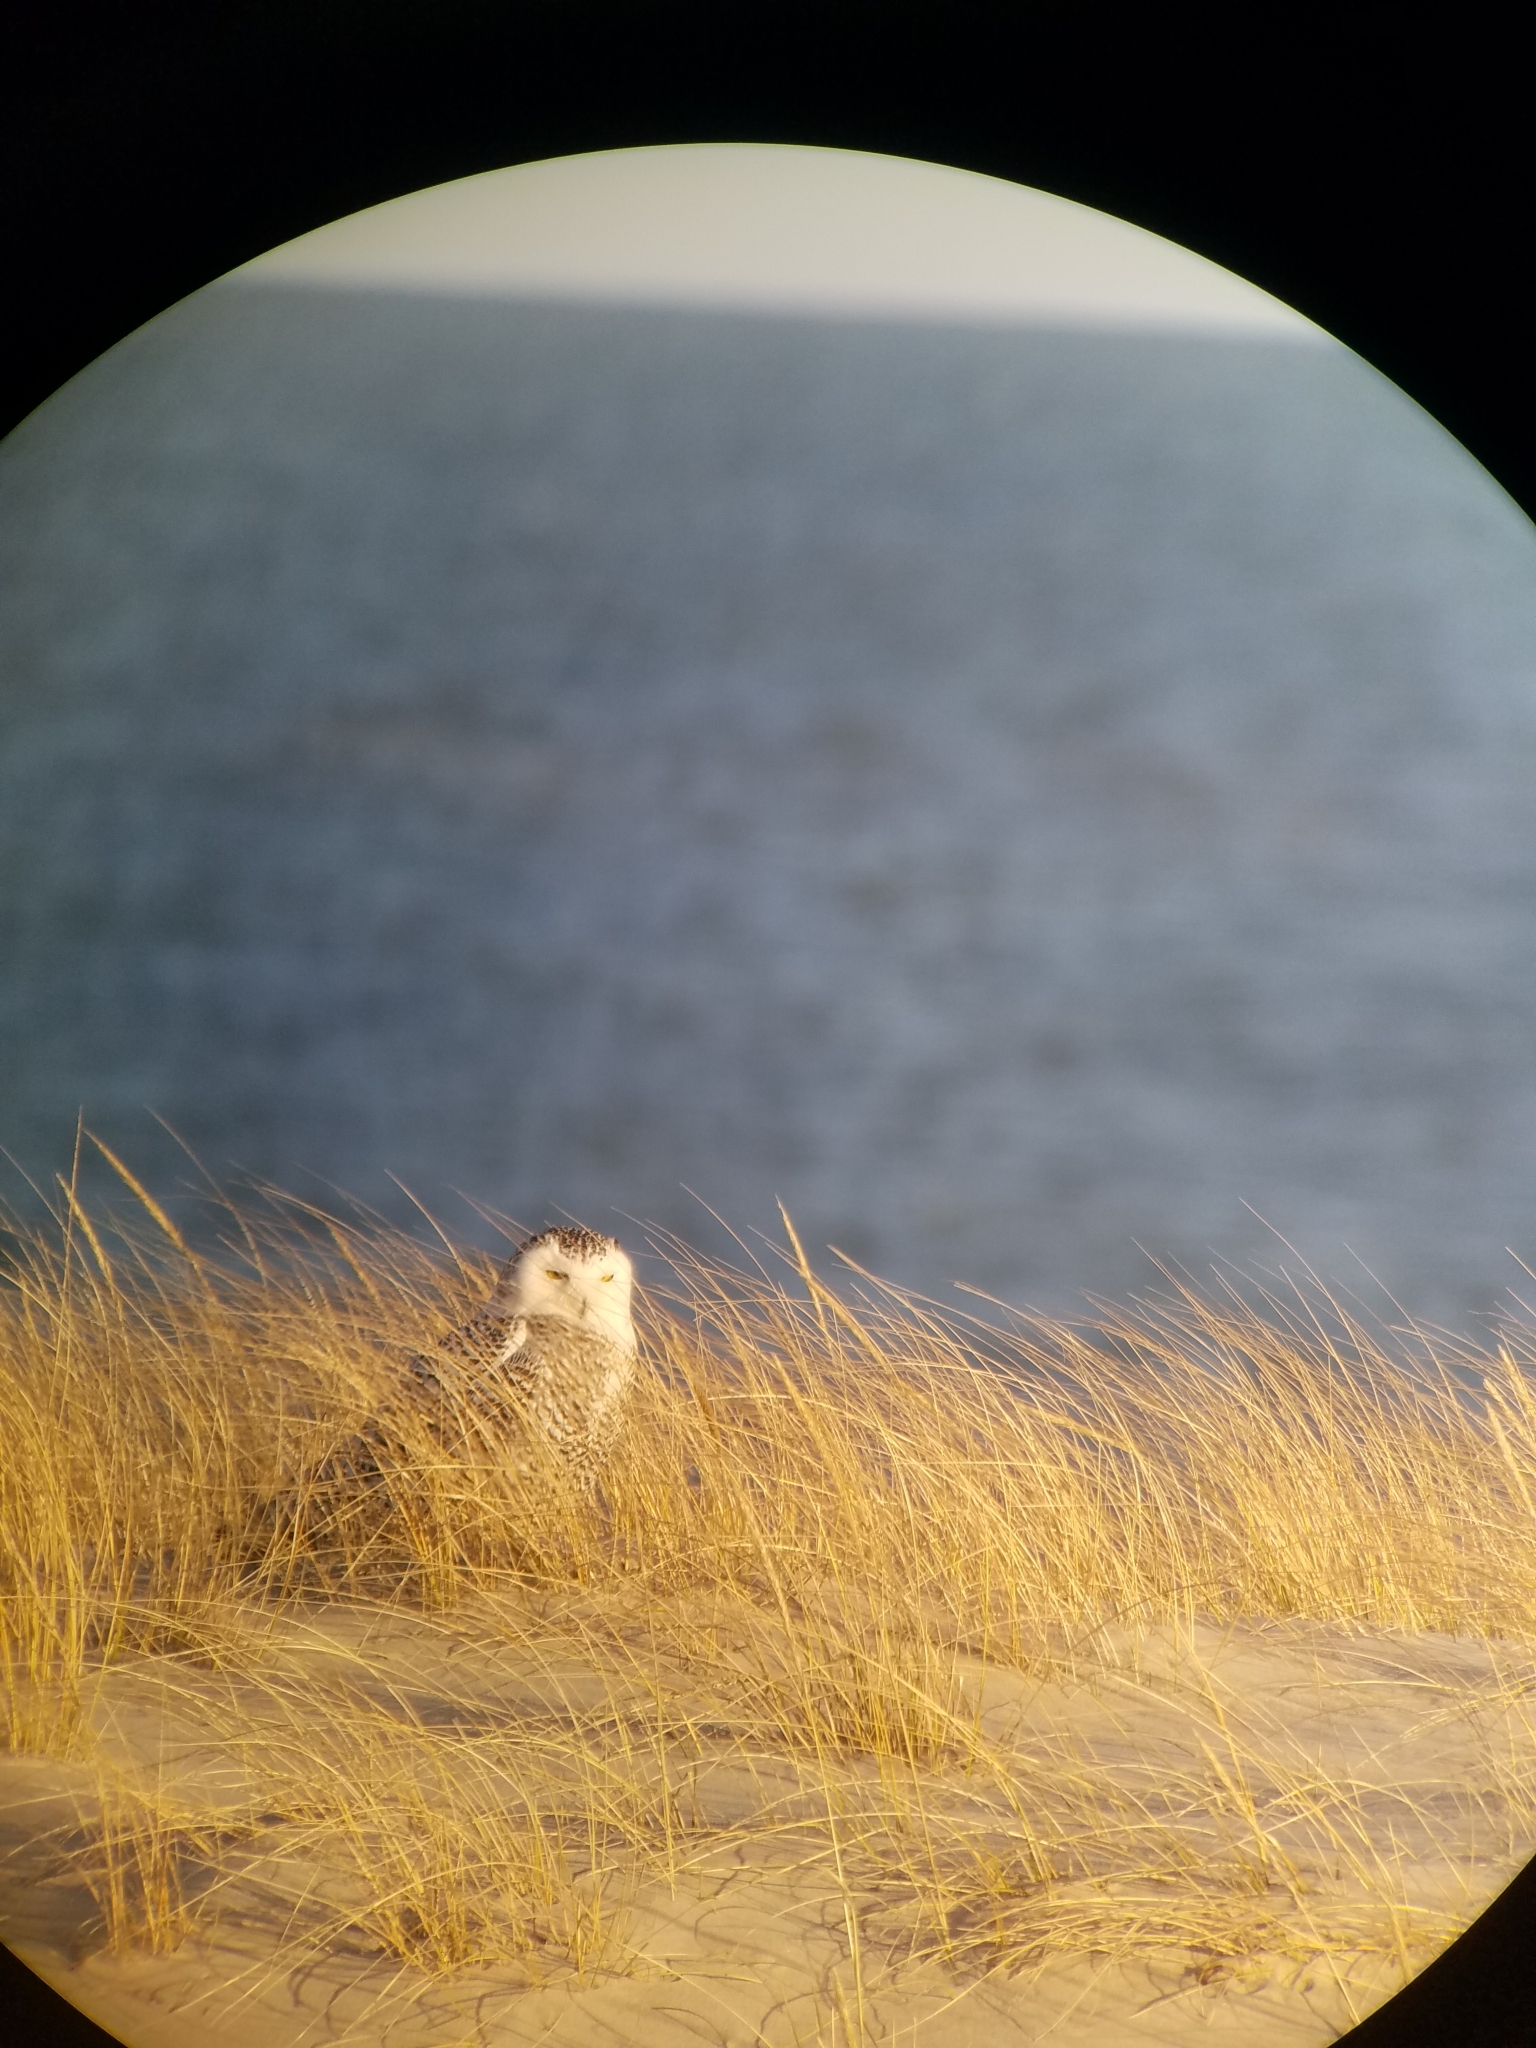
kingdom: Animalia
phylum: Chordata
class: Aves
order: Strigiformes
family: Strigidae
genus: Bubo
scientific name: Bubo scandiacus
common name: Snowy owl
